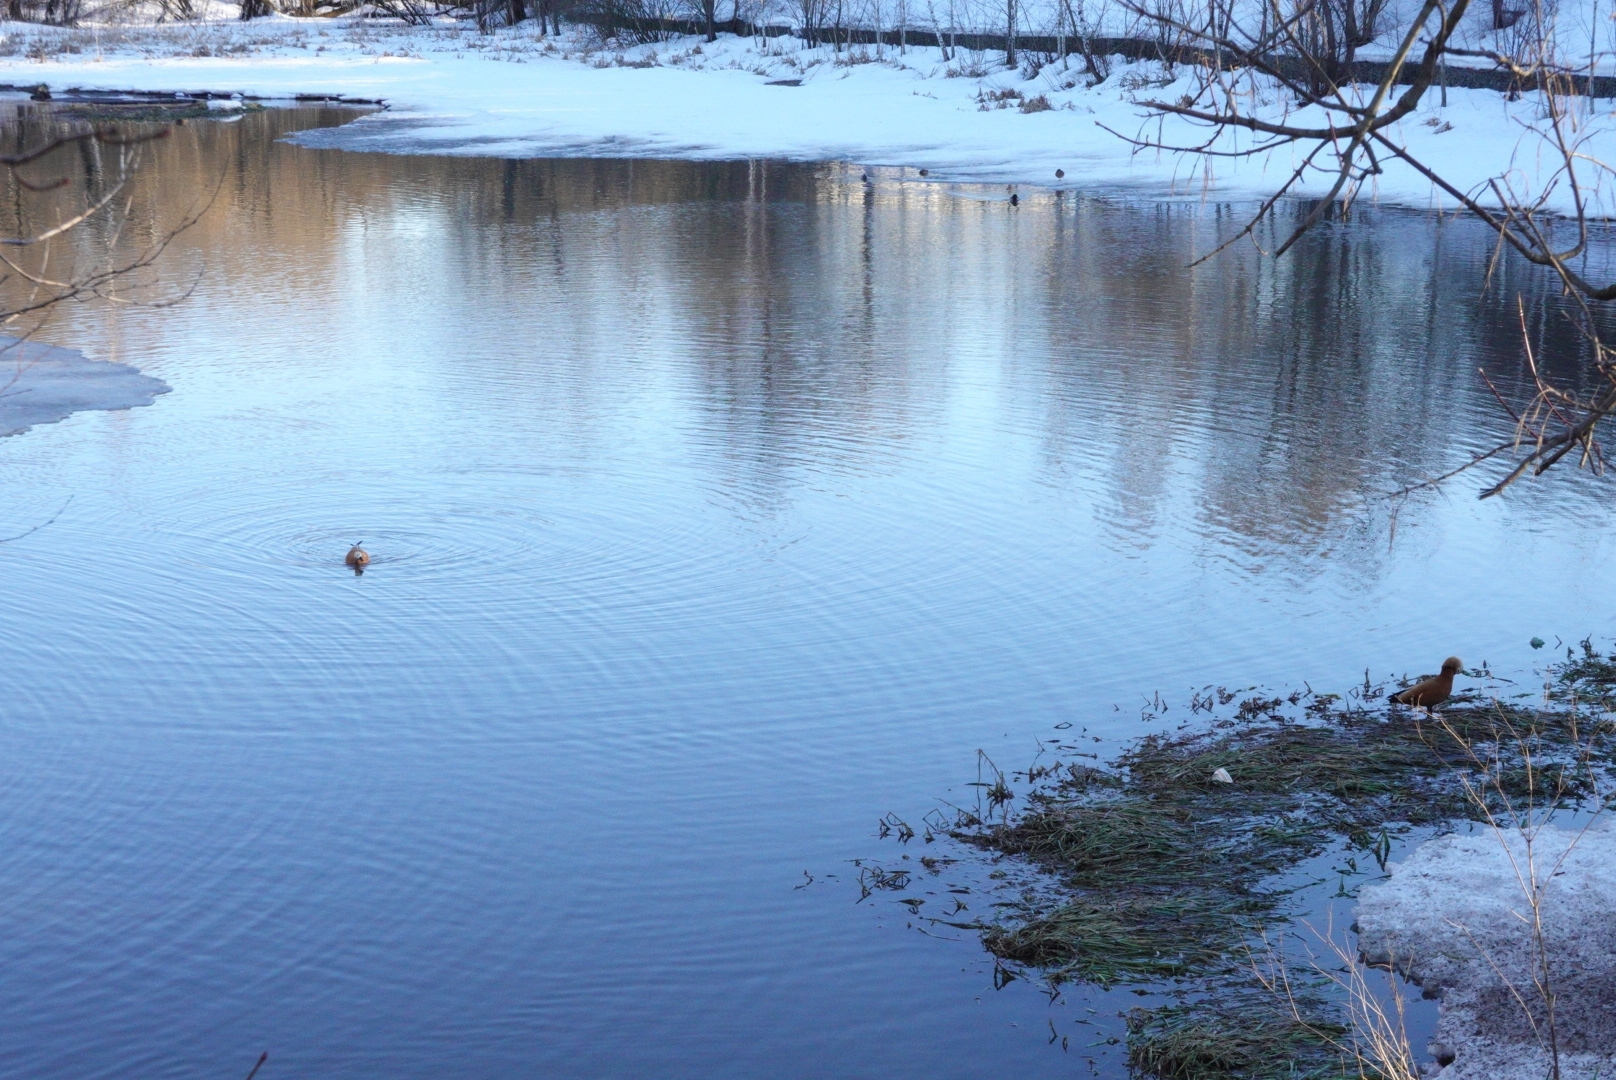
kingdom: Animalia
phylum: Chordata
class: Aves
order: Anseriformes
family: Anatidae
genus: Tadorna
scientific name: Tadorna ferruginea
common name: Ruddy shelduck
